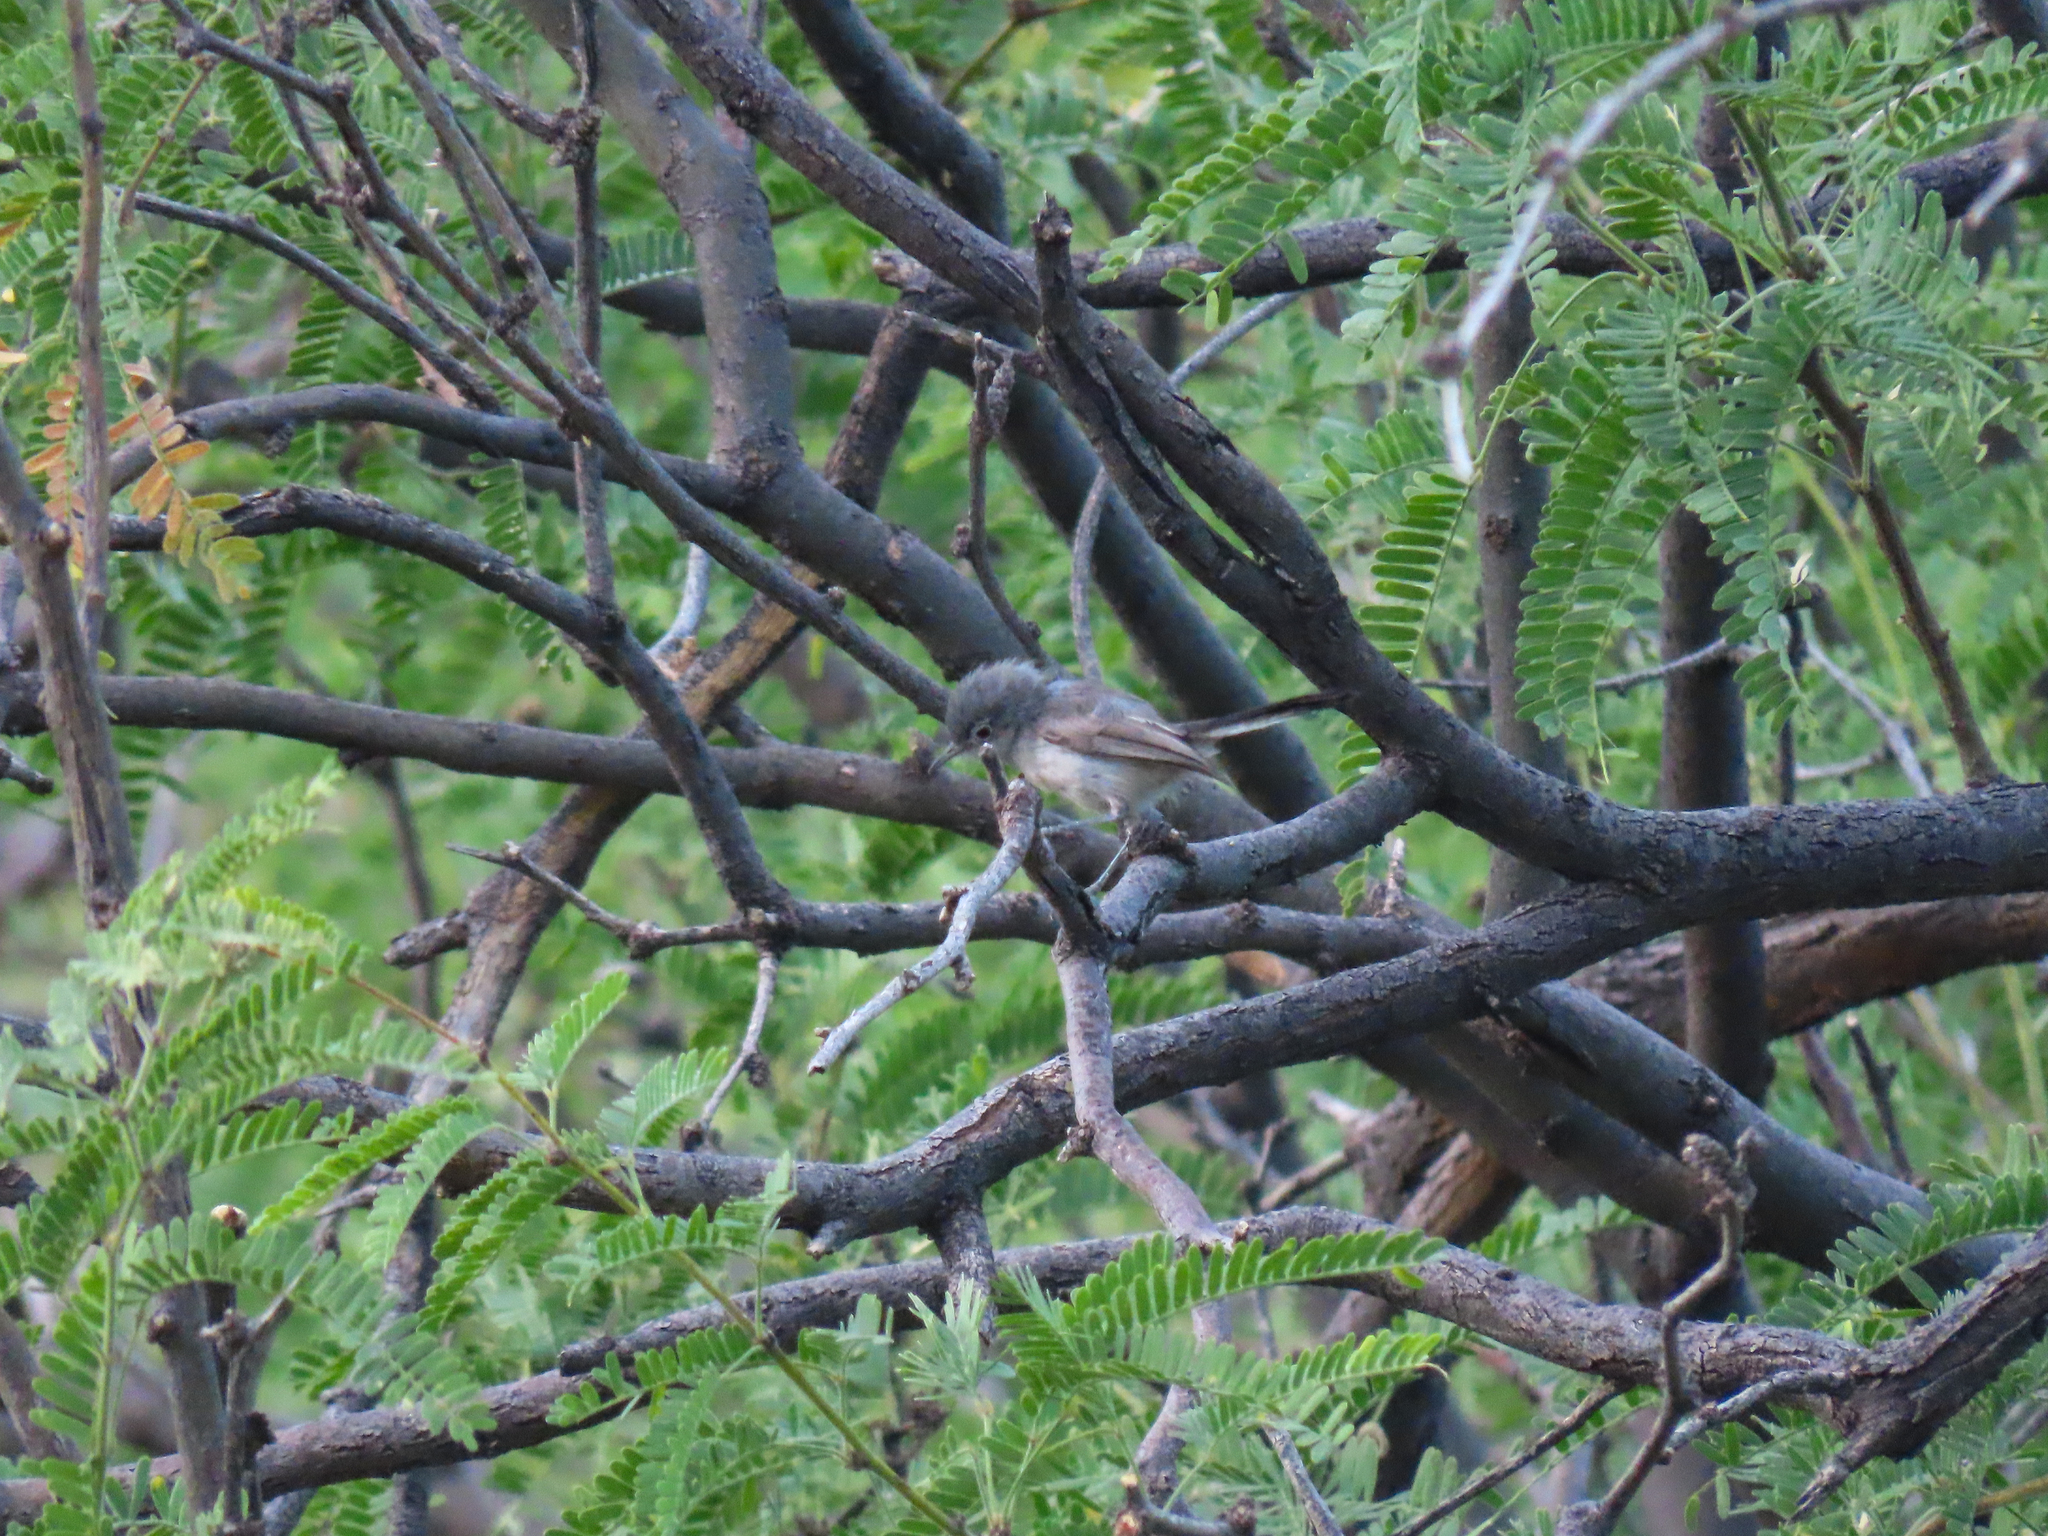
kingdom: Animalia
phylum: Chordata
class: Aves
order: Passeriformes
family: Polioptilidae
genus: Polioptila
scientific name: Polioptila melanura
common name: Black-tailed gnatcatcher
